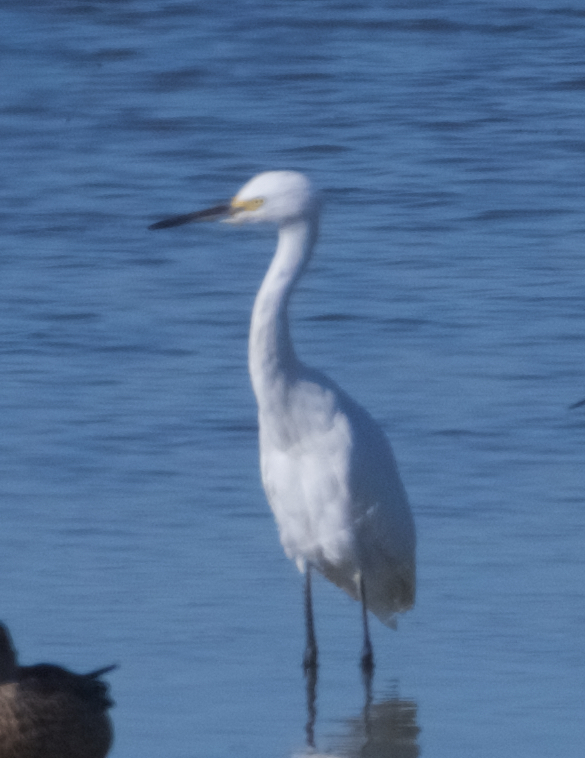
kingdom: Animalia
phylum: Chordata
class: Aves
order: Pelecaniformes
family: Ardeidae
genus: Egretta
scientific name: Egretta thula
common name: Snowy egret
